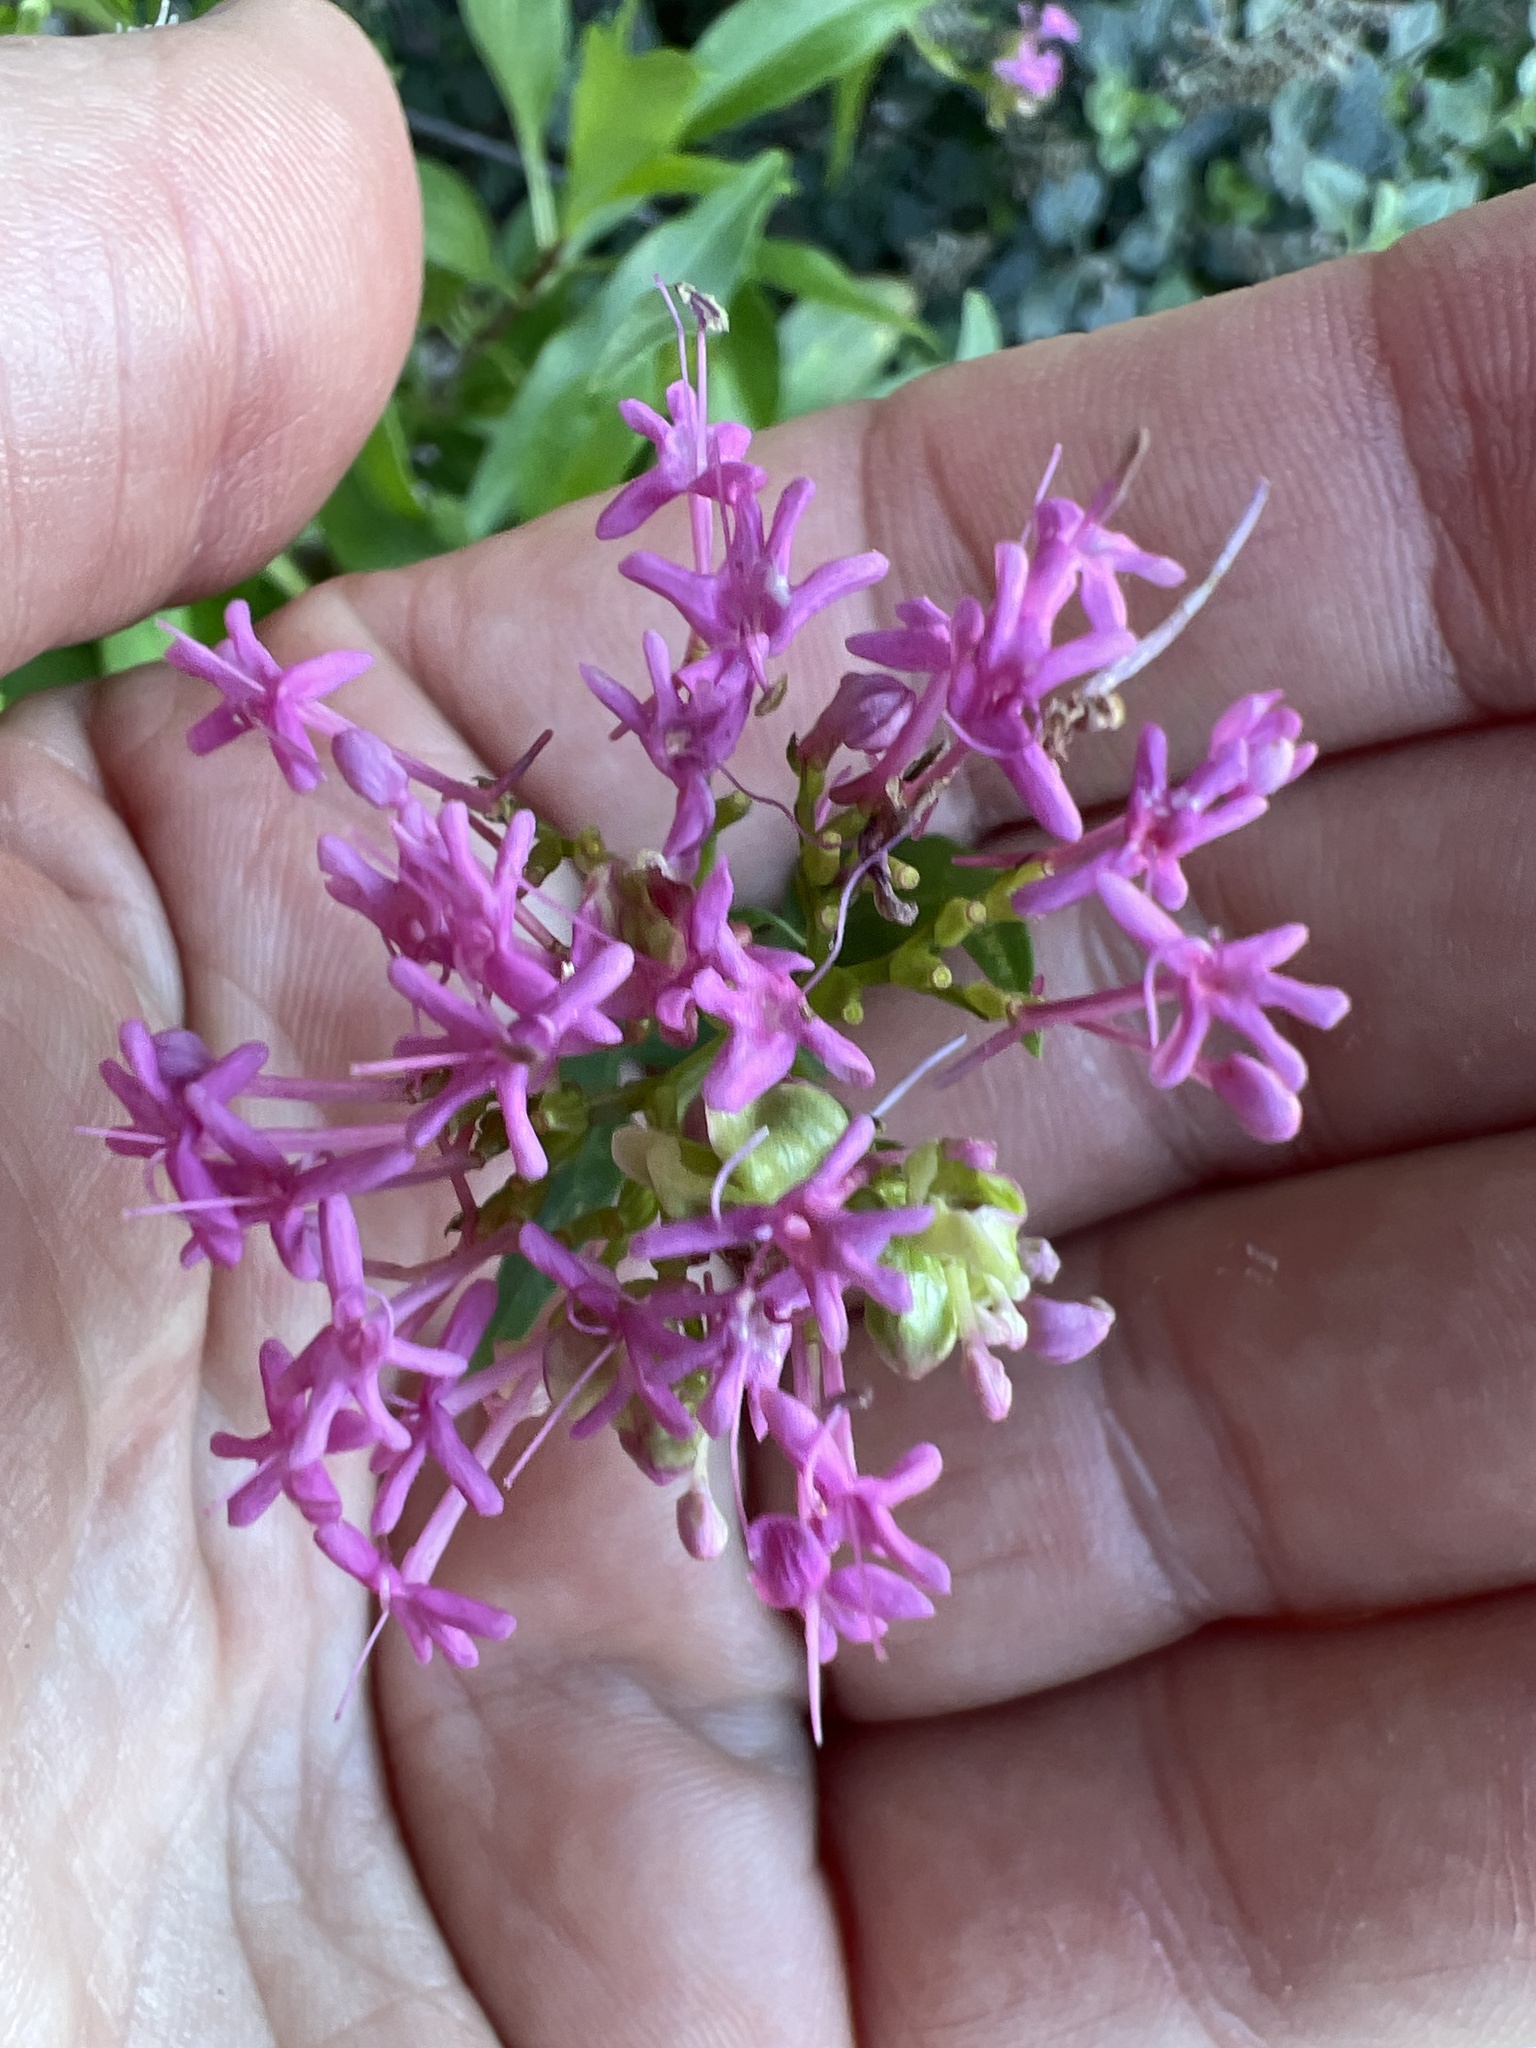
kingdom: Plantae
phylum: Tracheophyta
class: Magnoliopsida
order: Dipsacales
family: Caprifoliaceae
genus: Centranthus
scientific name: Centranthus ruber
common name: Red valerian
